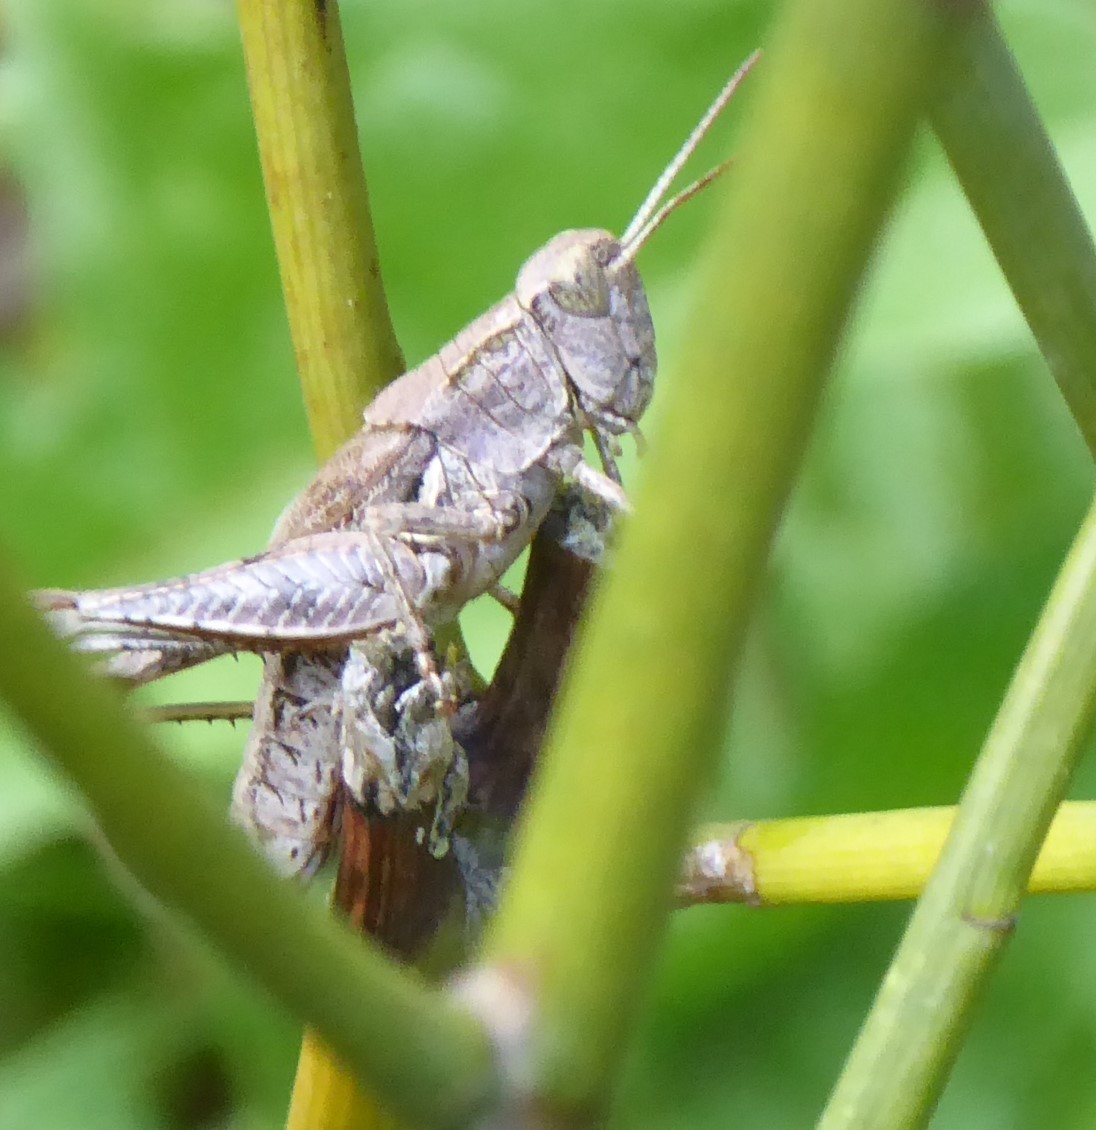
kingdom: Animalia
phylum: Arthropoda
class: Insecta
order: Orthoptera
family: Acrididae
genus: Phaulacridium
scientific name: Phaulacridium marginale
